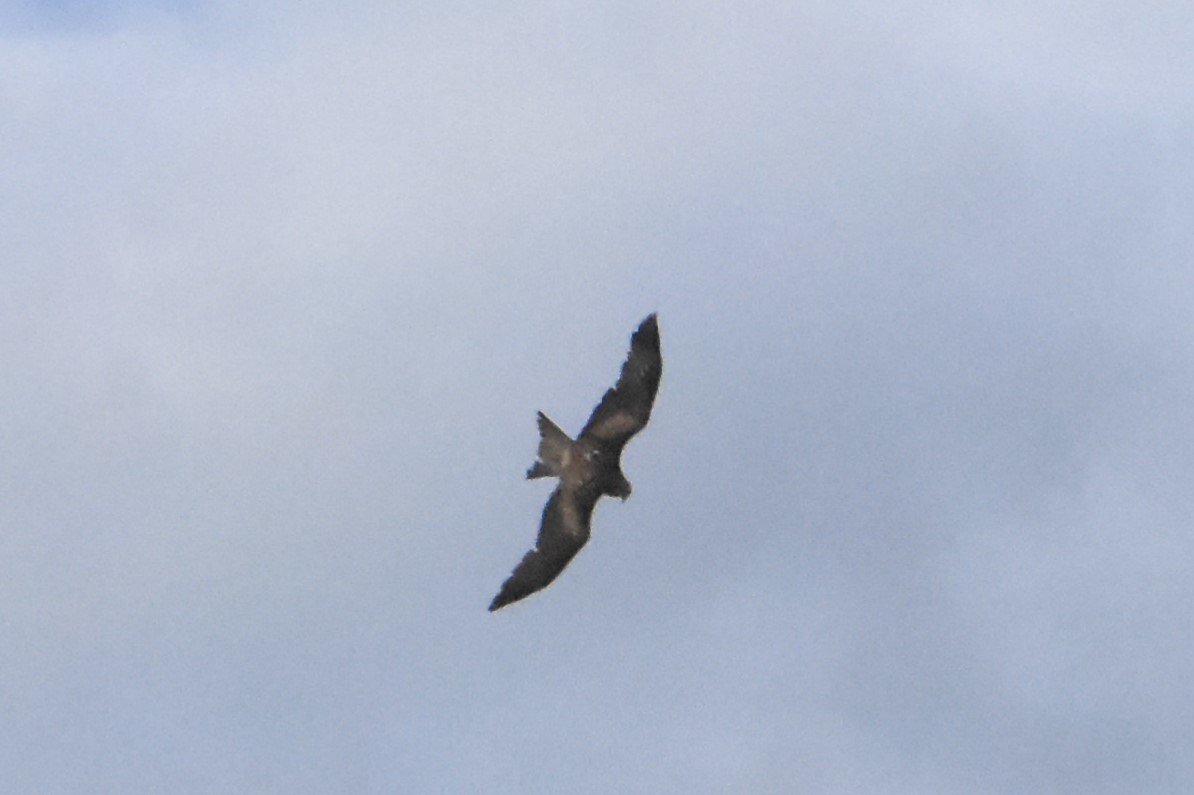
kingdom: Animalia
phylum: Chordata
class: Aves
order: Accipitriformes
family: Accipitridae
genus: Milvus
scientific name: Milvus migrans
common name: Black kite
